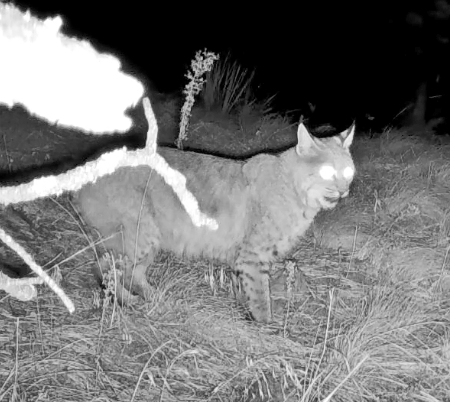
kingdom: Animalia
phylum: Chordata
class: Mammalia
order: Carnivora
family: Felidae
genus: Lynx
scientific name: Lynx rufus
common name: Bobcat
